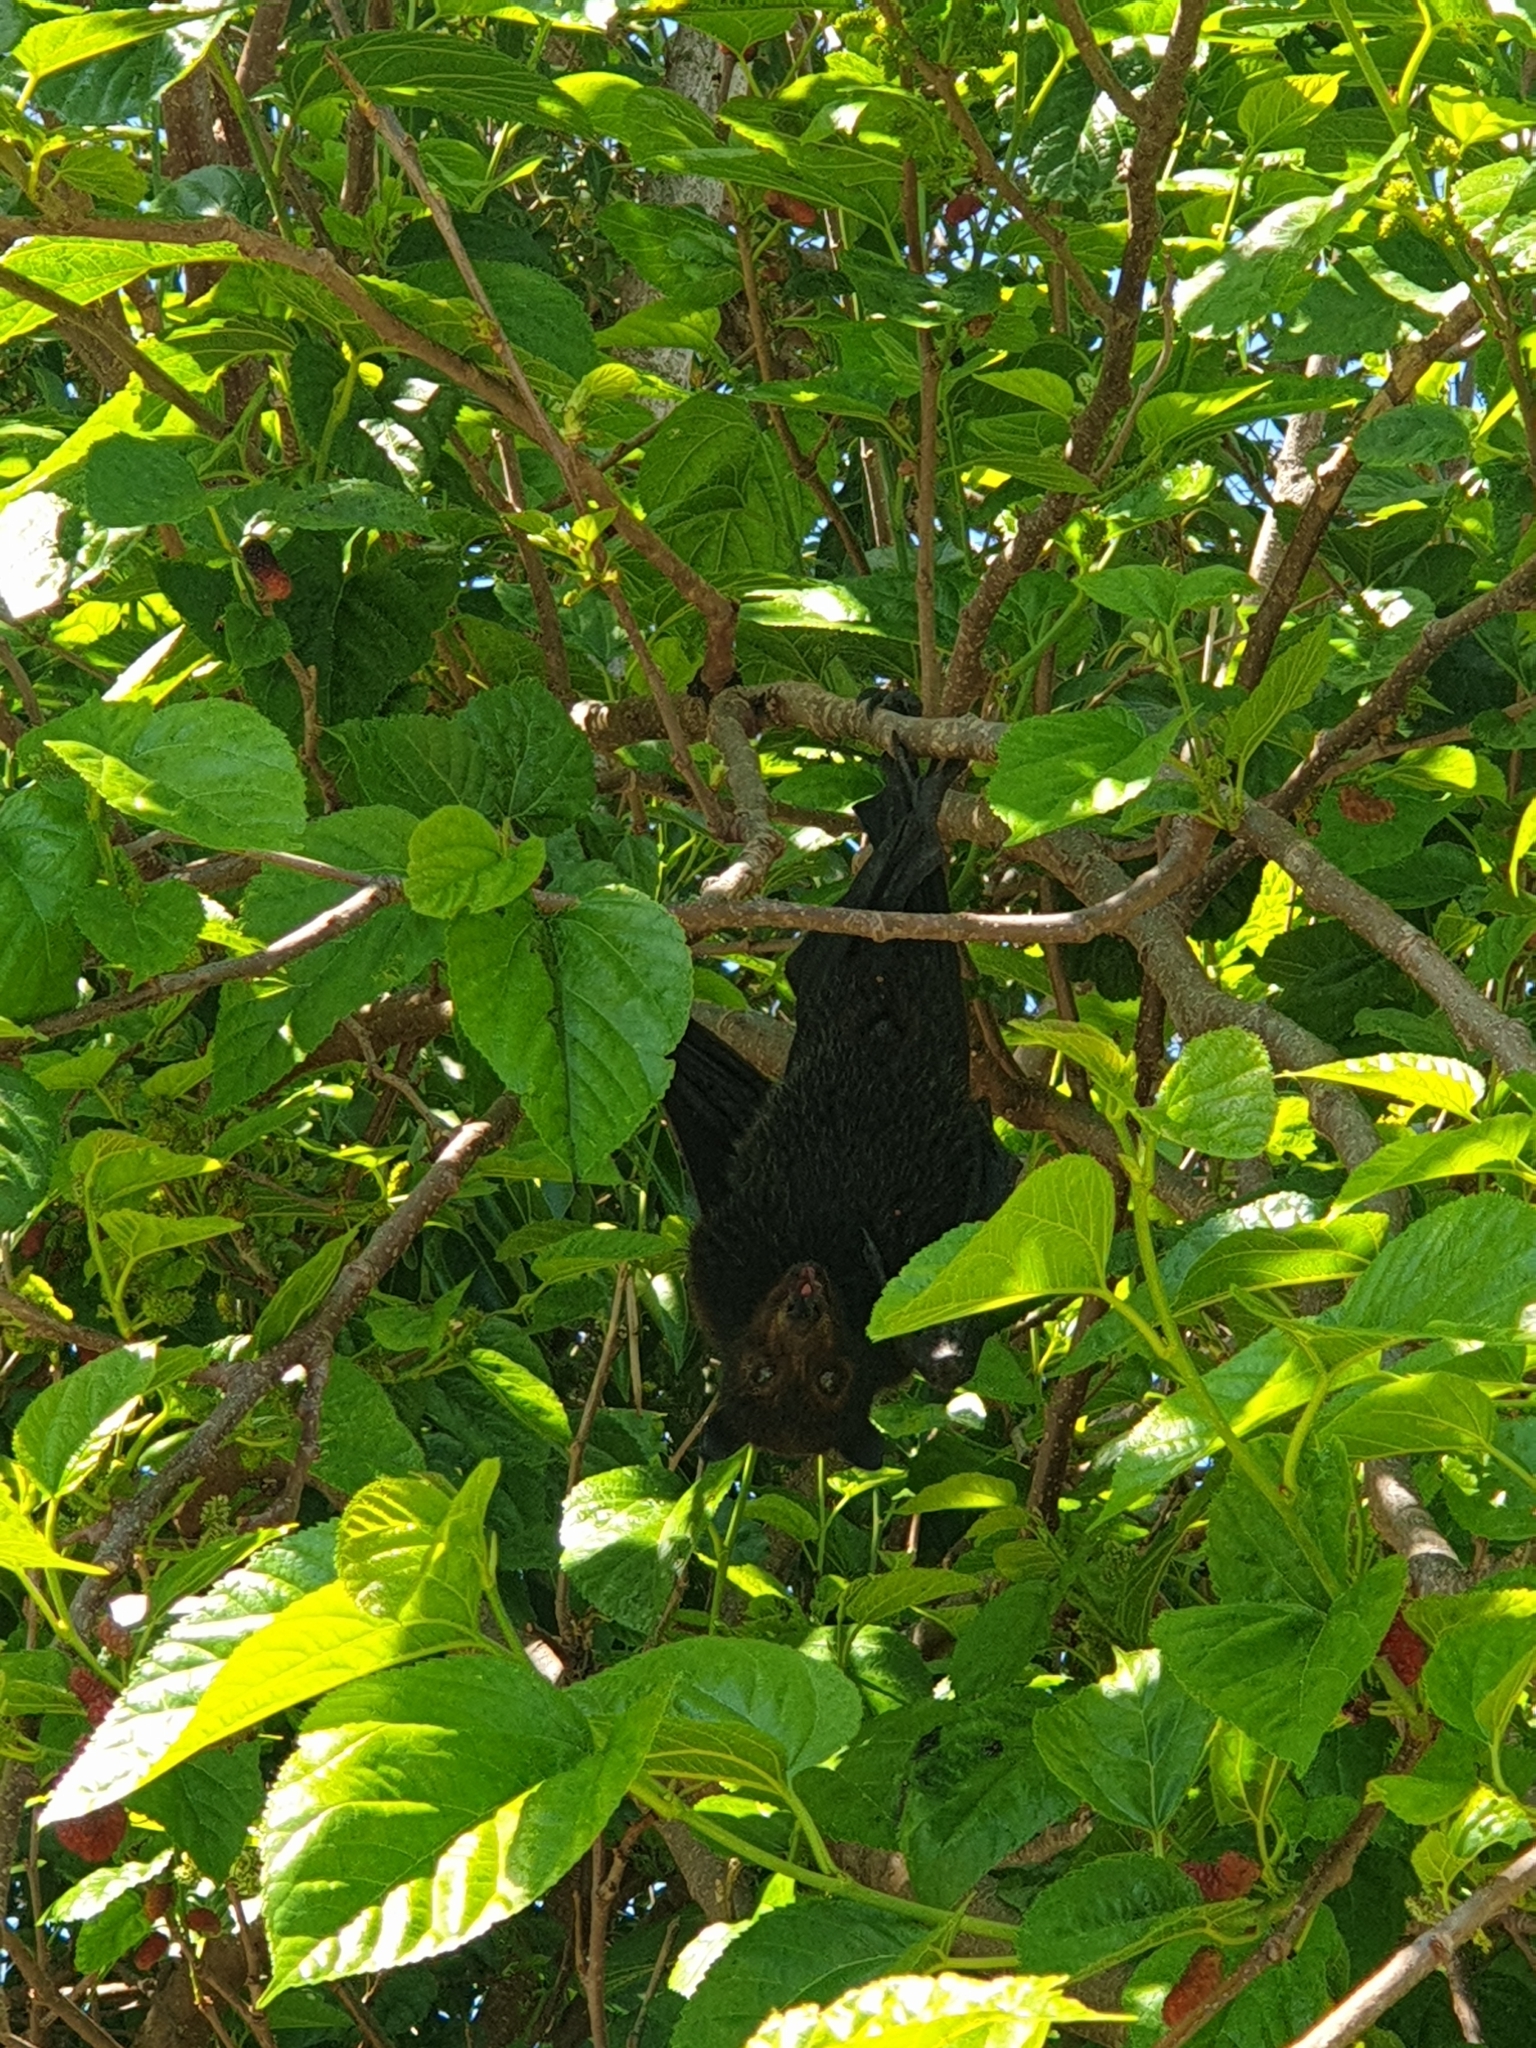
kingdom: Animalia
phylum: Chordata
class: Mammalia
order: Chiroptera
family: Pteropodidae
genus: Pteropus
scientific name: Pteropus alecto
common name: Black flying fox
